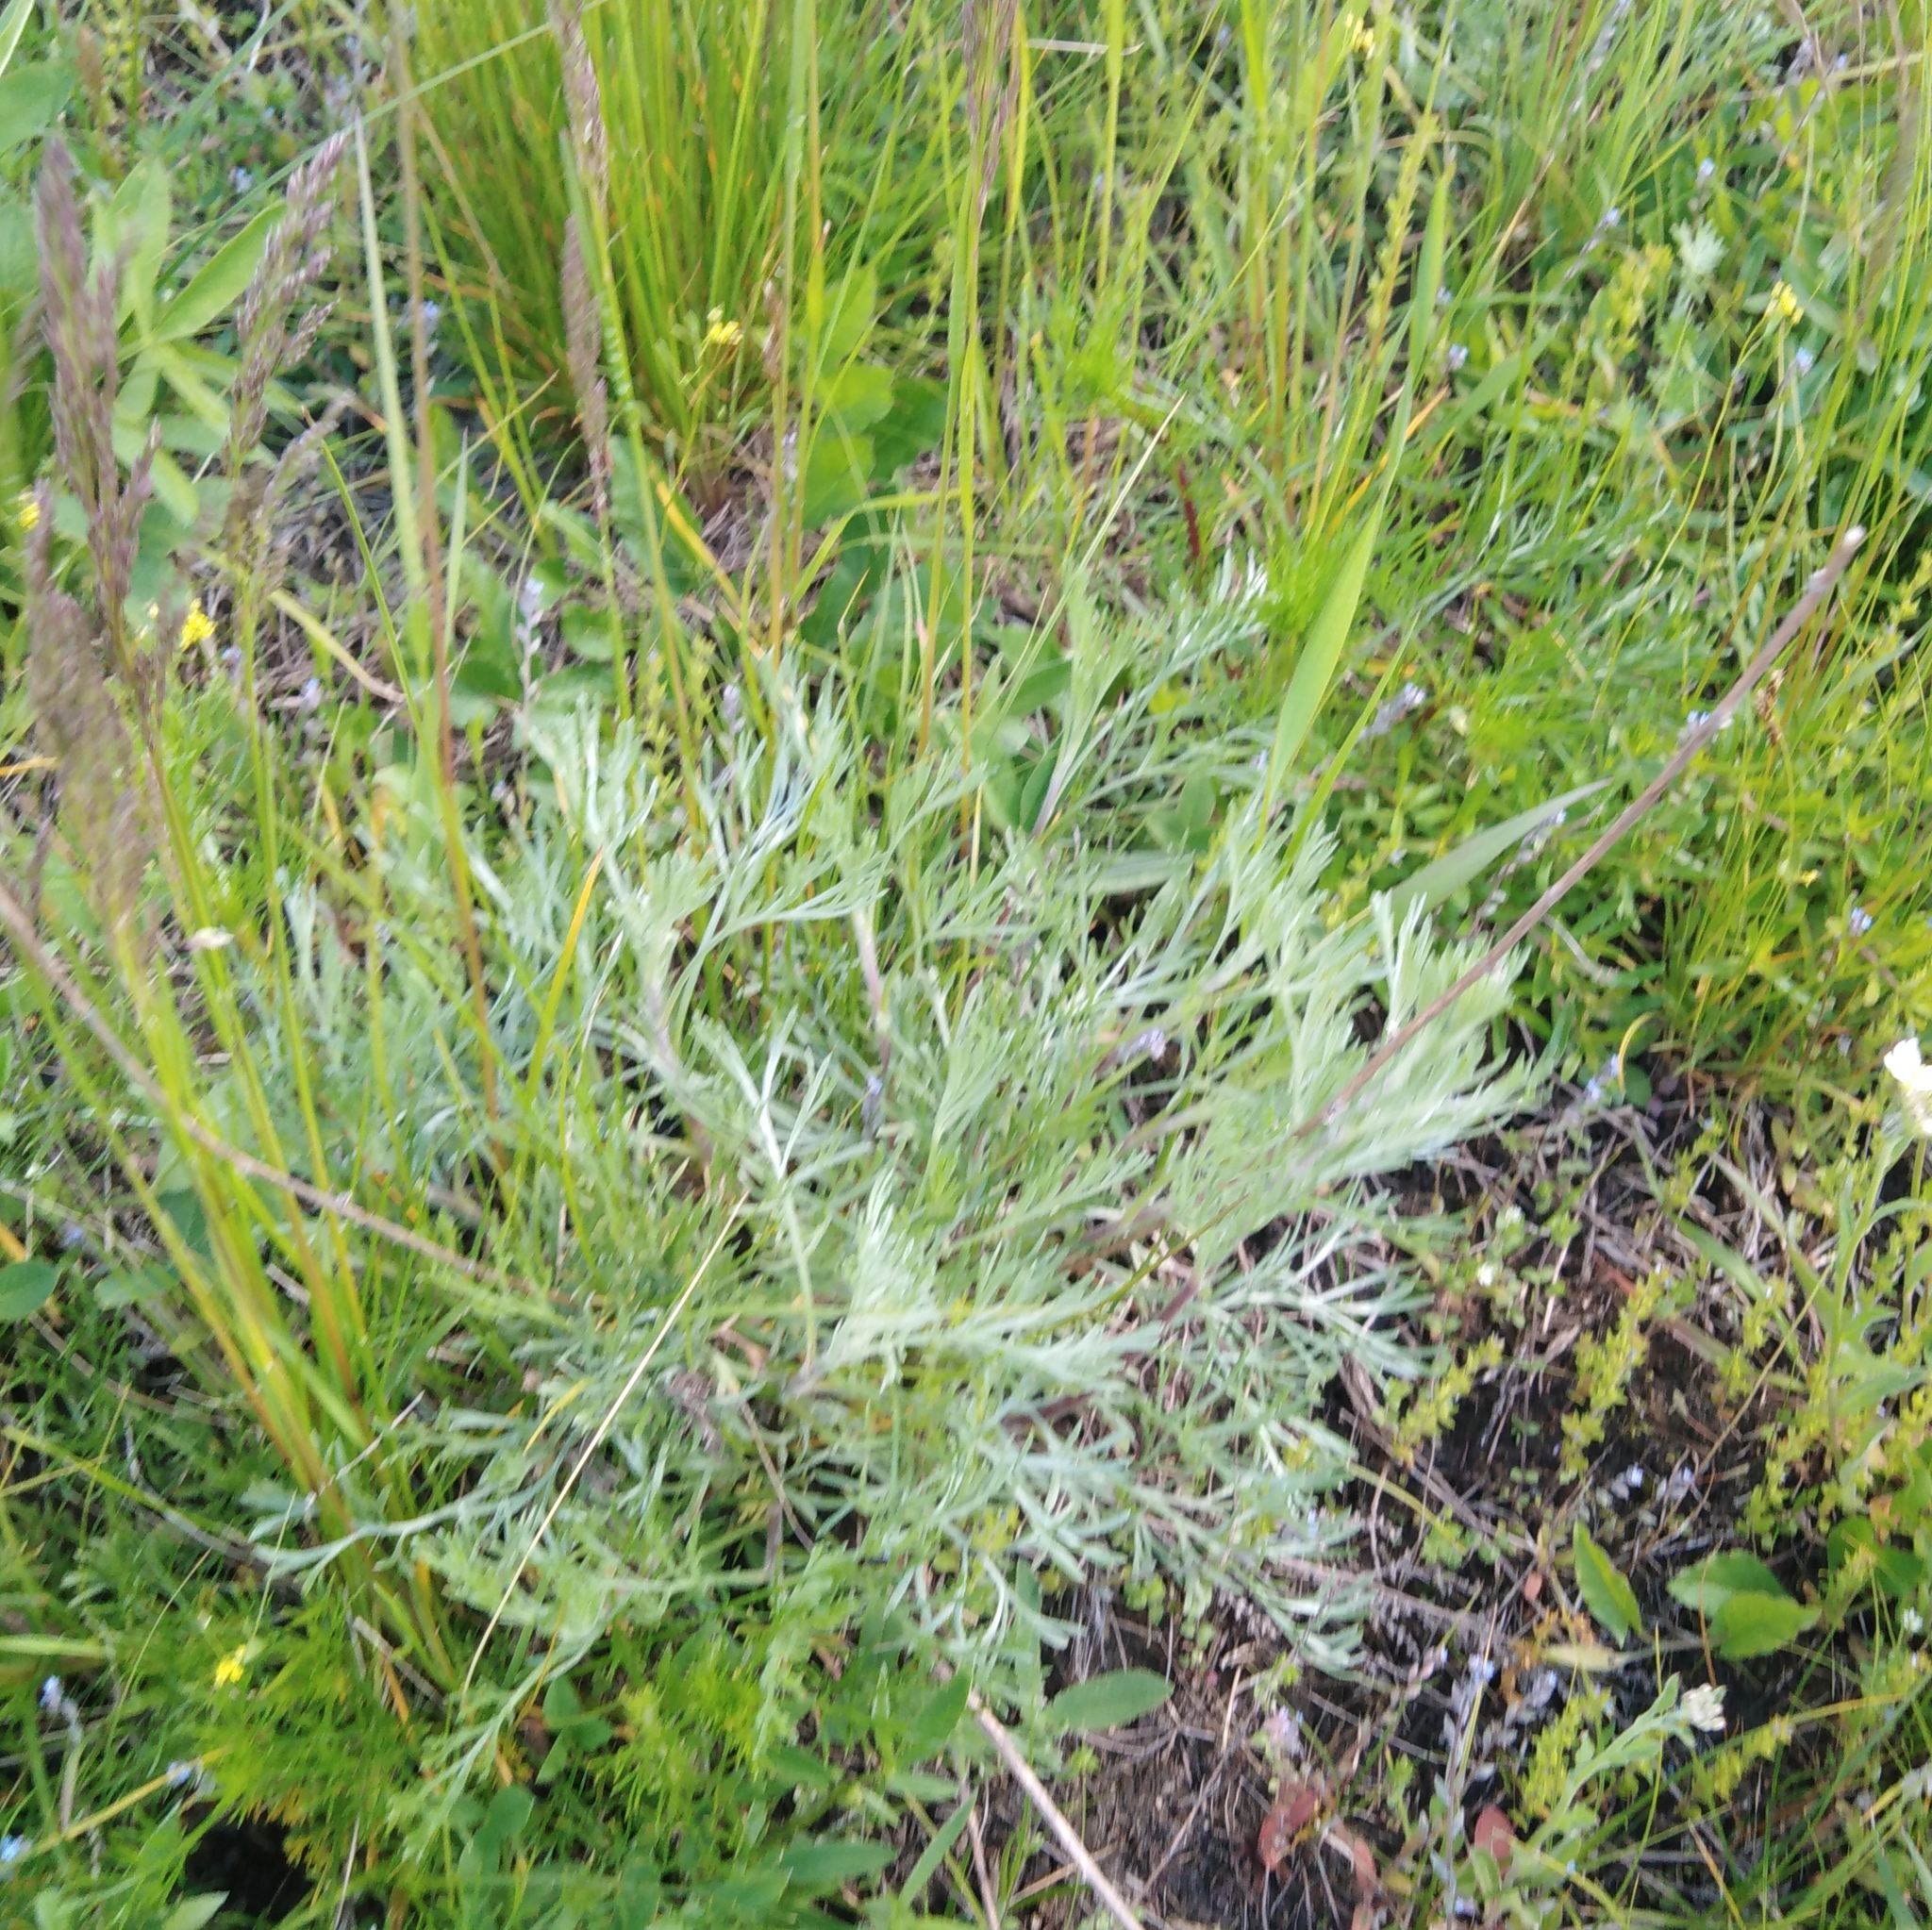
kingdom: Plantae
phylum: Tracheophyta
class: Magnoliopsida
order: Asterales
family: Asteraceae
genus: Artemisia
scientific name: Artemisia campestris
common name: Field wormwood
